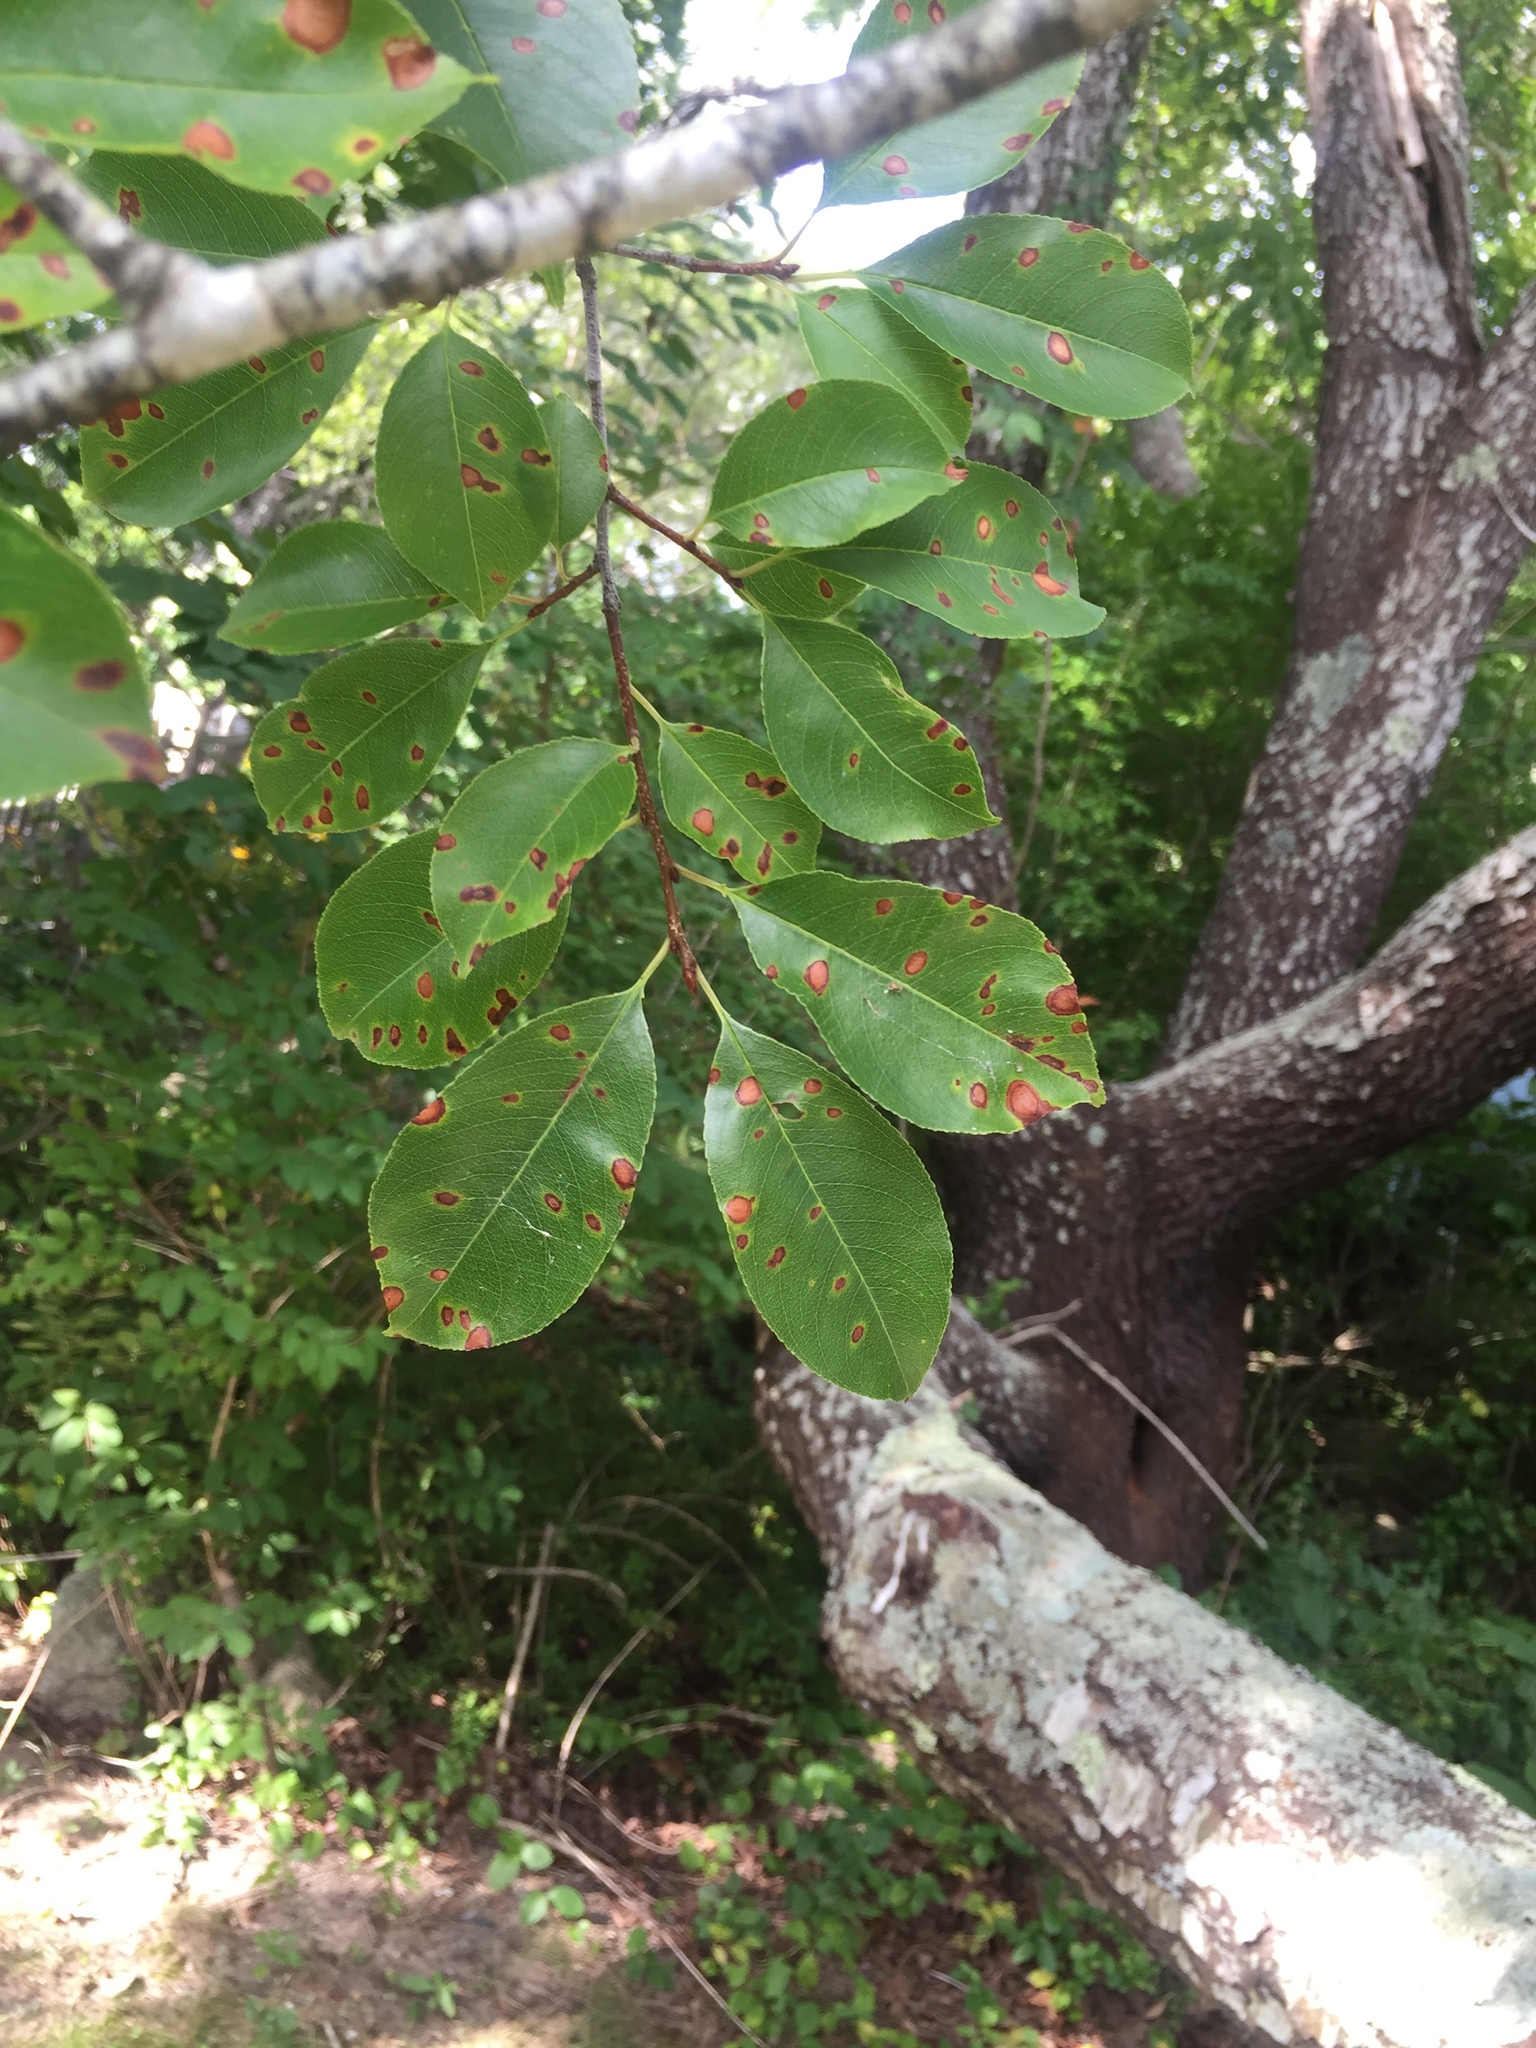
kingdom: Plantae
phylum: Tracheophyta
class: Magnoliopsida
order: Rosales
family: Rosaceae
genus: Prunus
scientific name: Prunus serotina
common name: Black cherry
